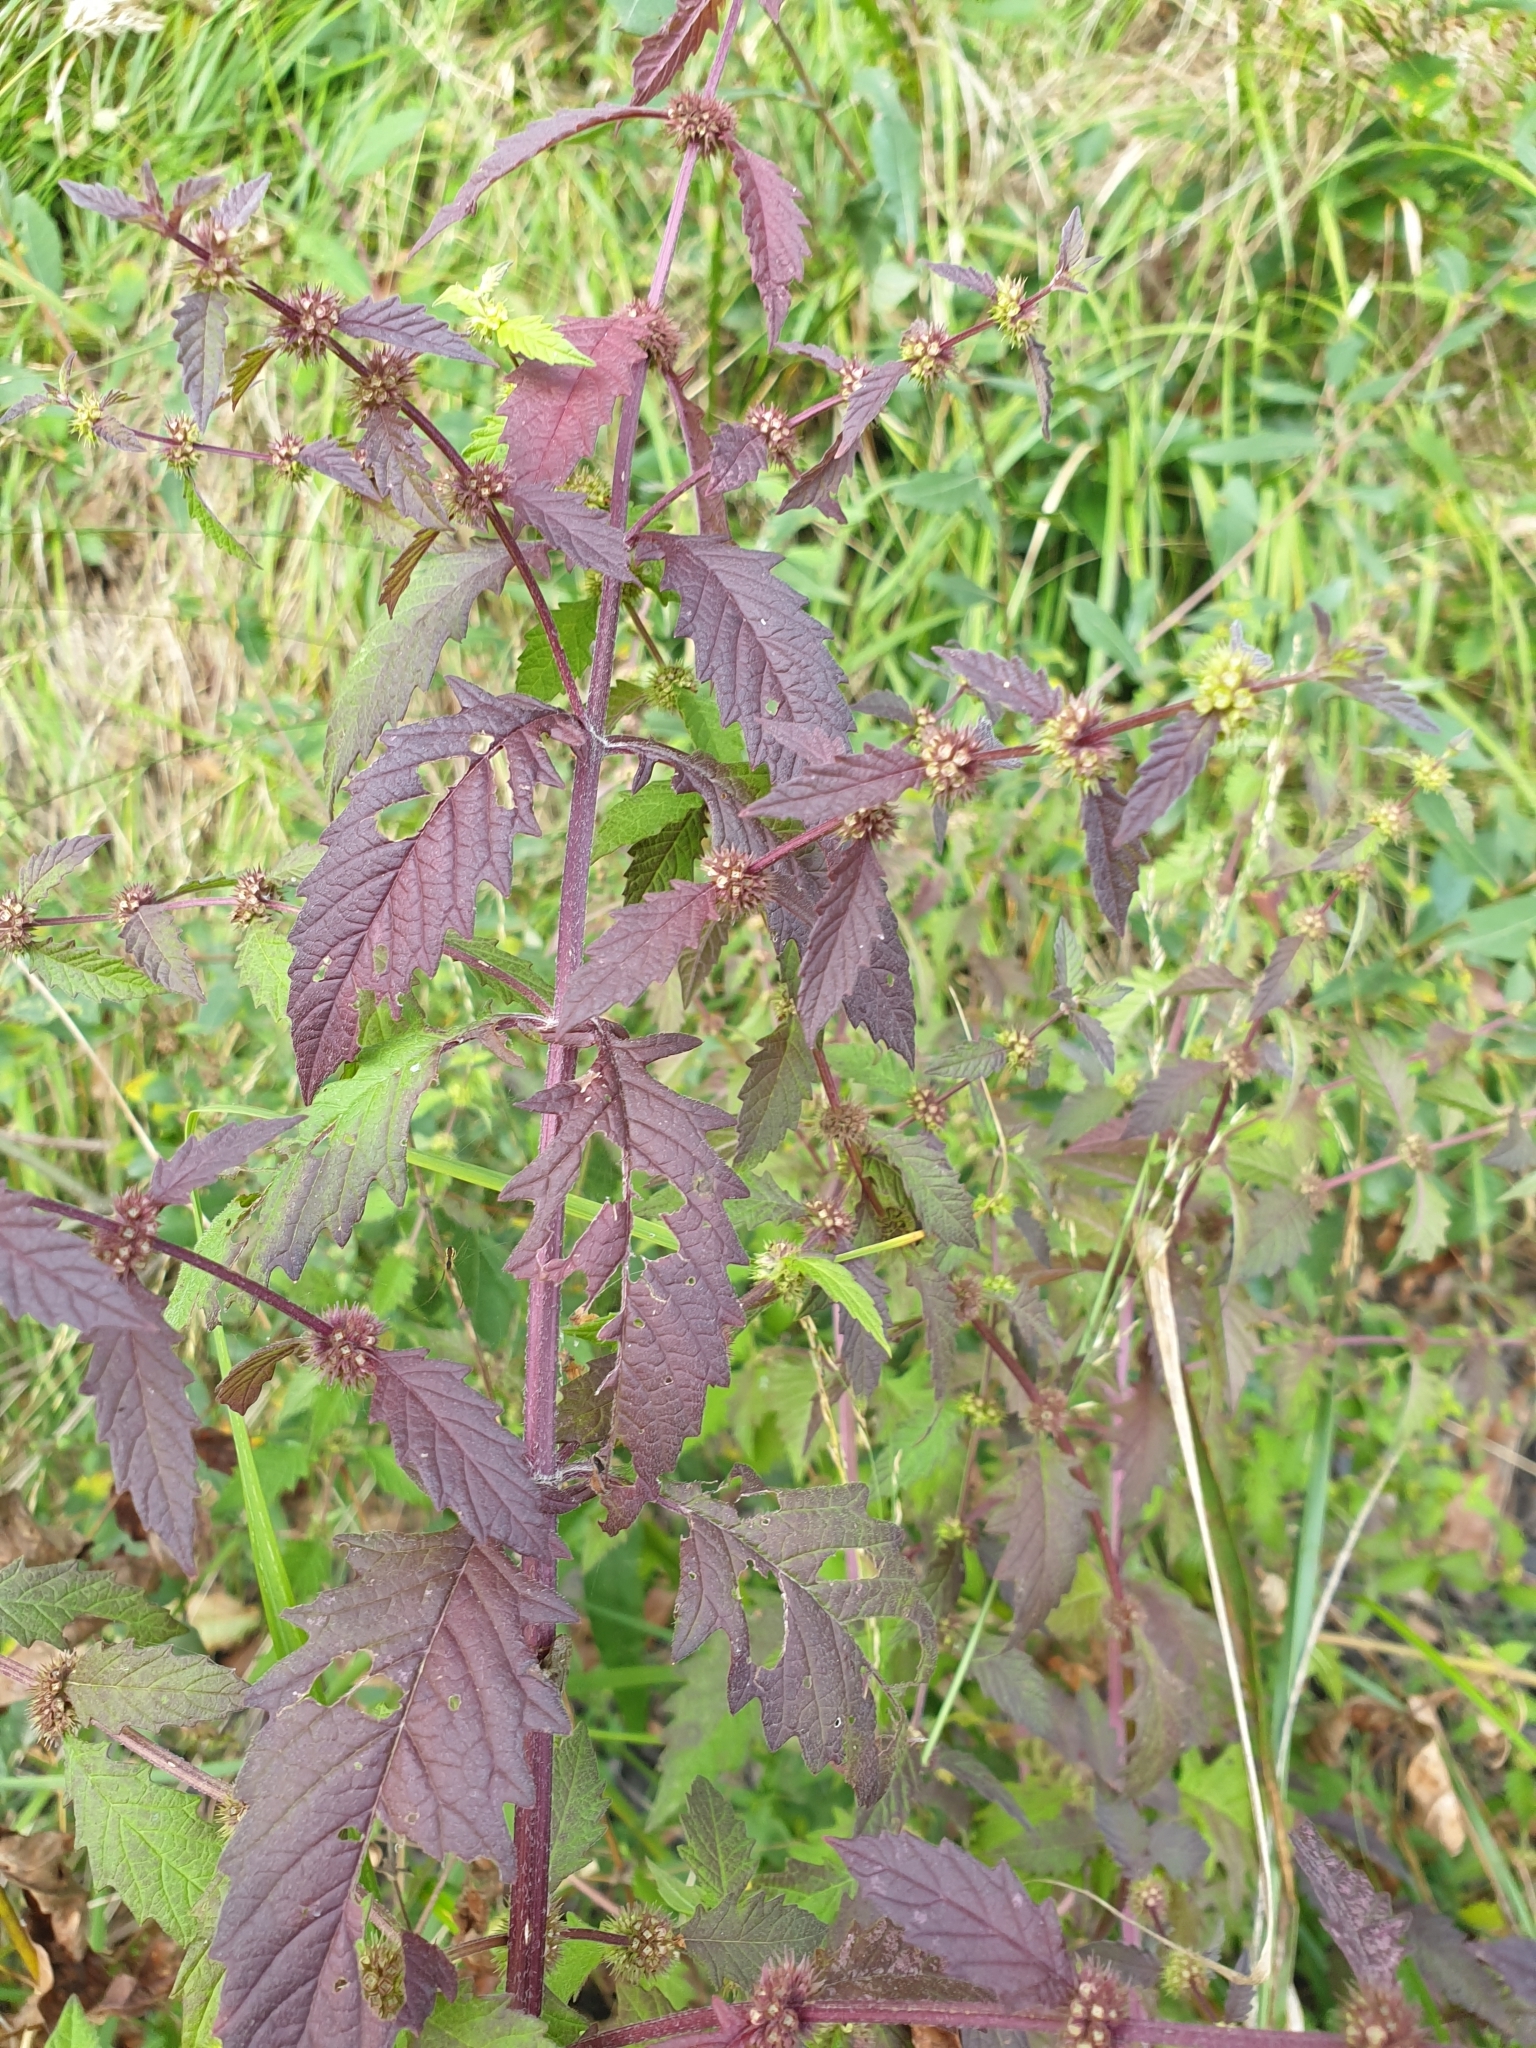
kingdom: Plantae
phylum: Tracheophyta
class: Magnoliopsida
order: Lamiales
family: Lamiaceae
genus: Lycopus
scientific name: Lycopus europaeus
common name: European bugleweed
